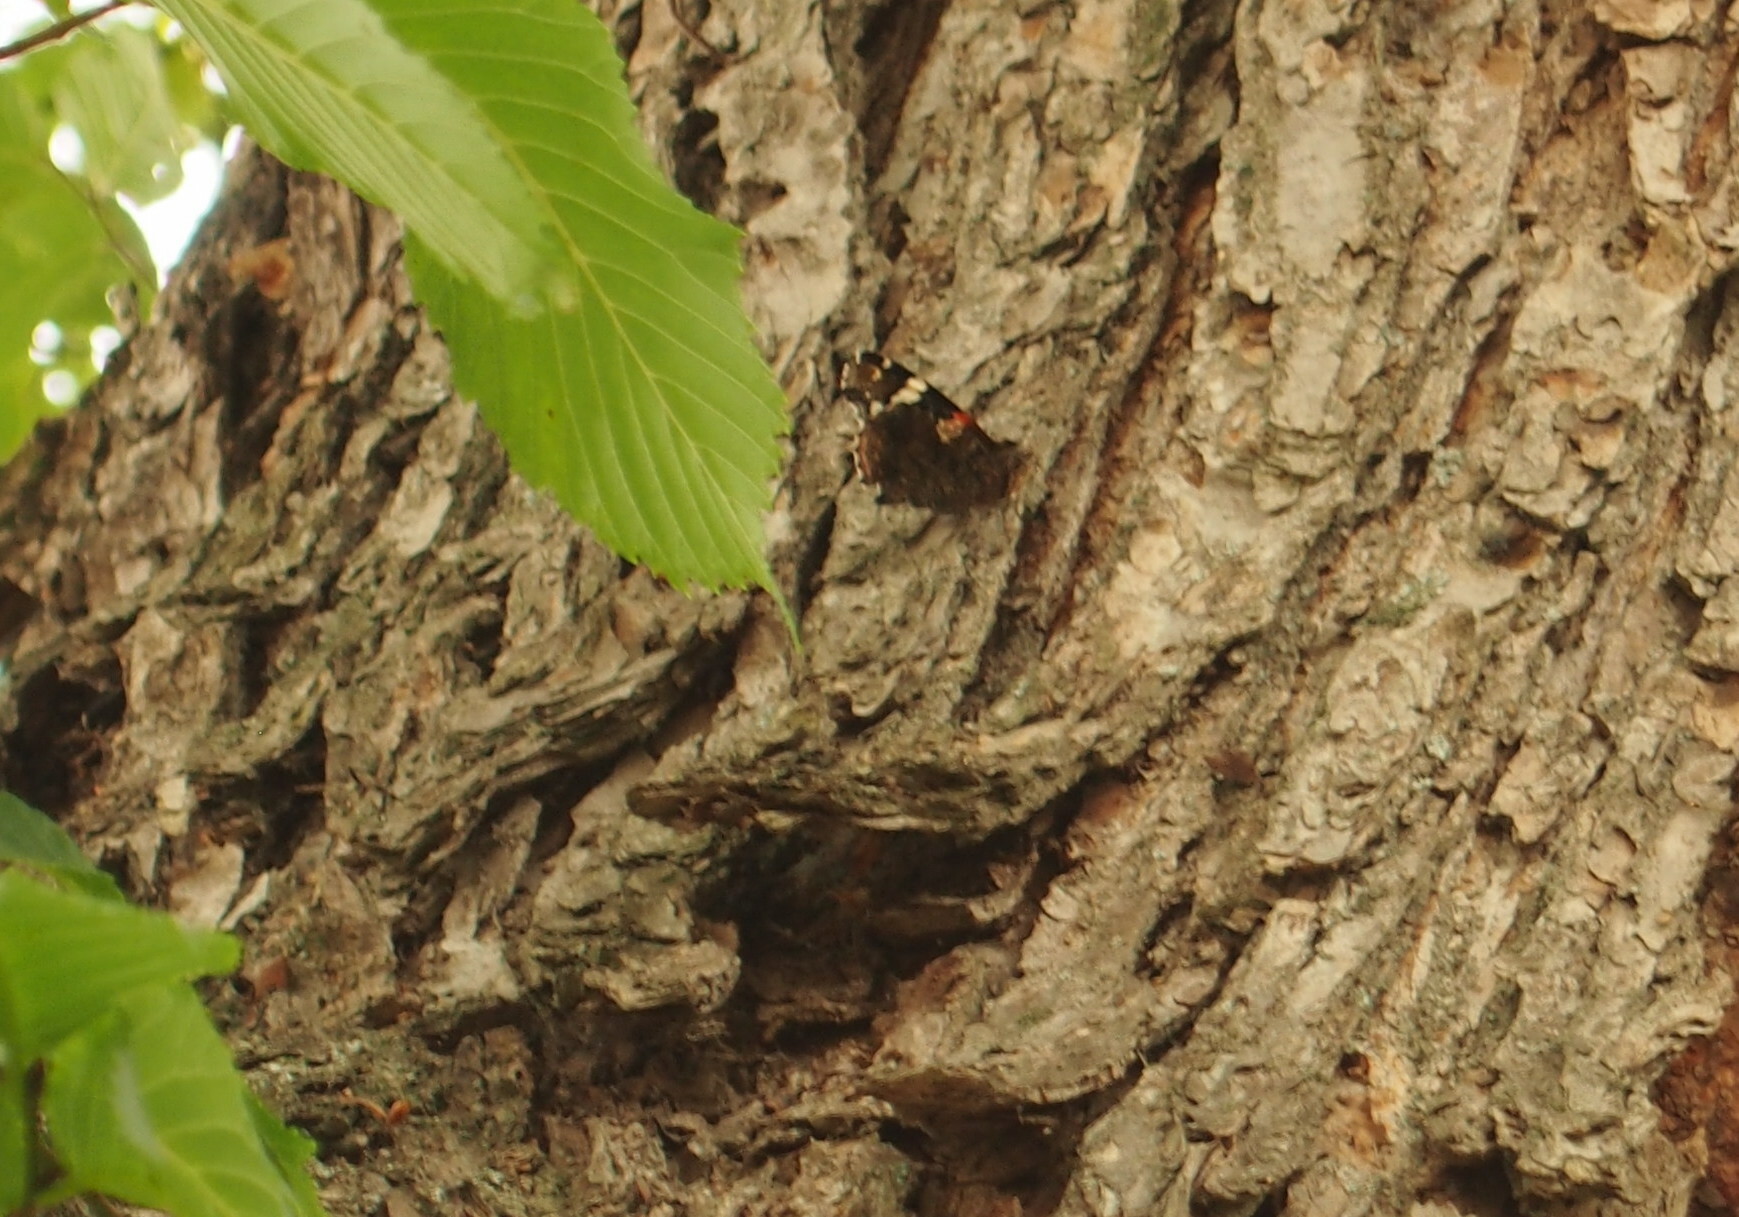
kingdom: Animalia
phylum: Arthropoda
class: Insecta
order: Lepidoptera
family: Nymphalidae
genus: Vanessa
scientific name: Vanessa atalanta
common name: Red admiral
